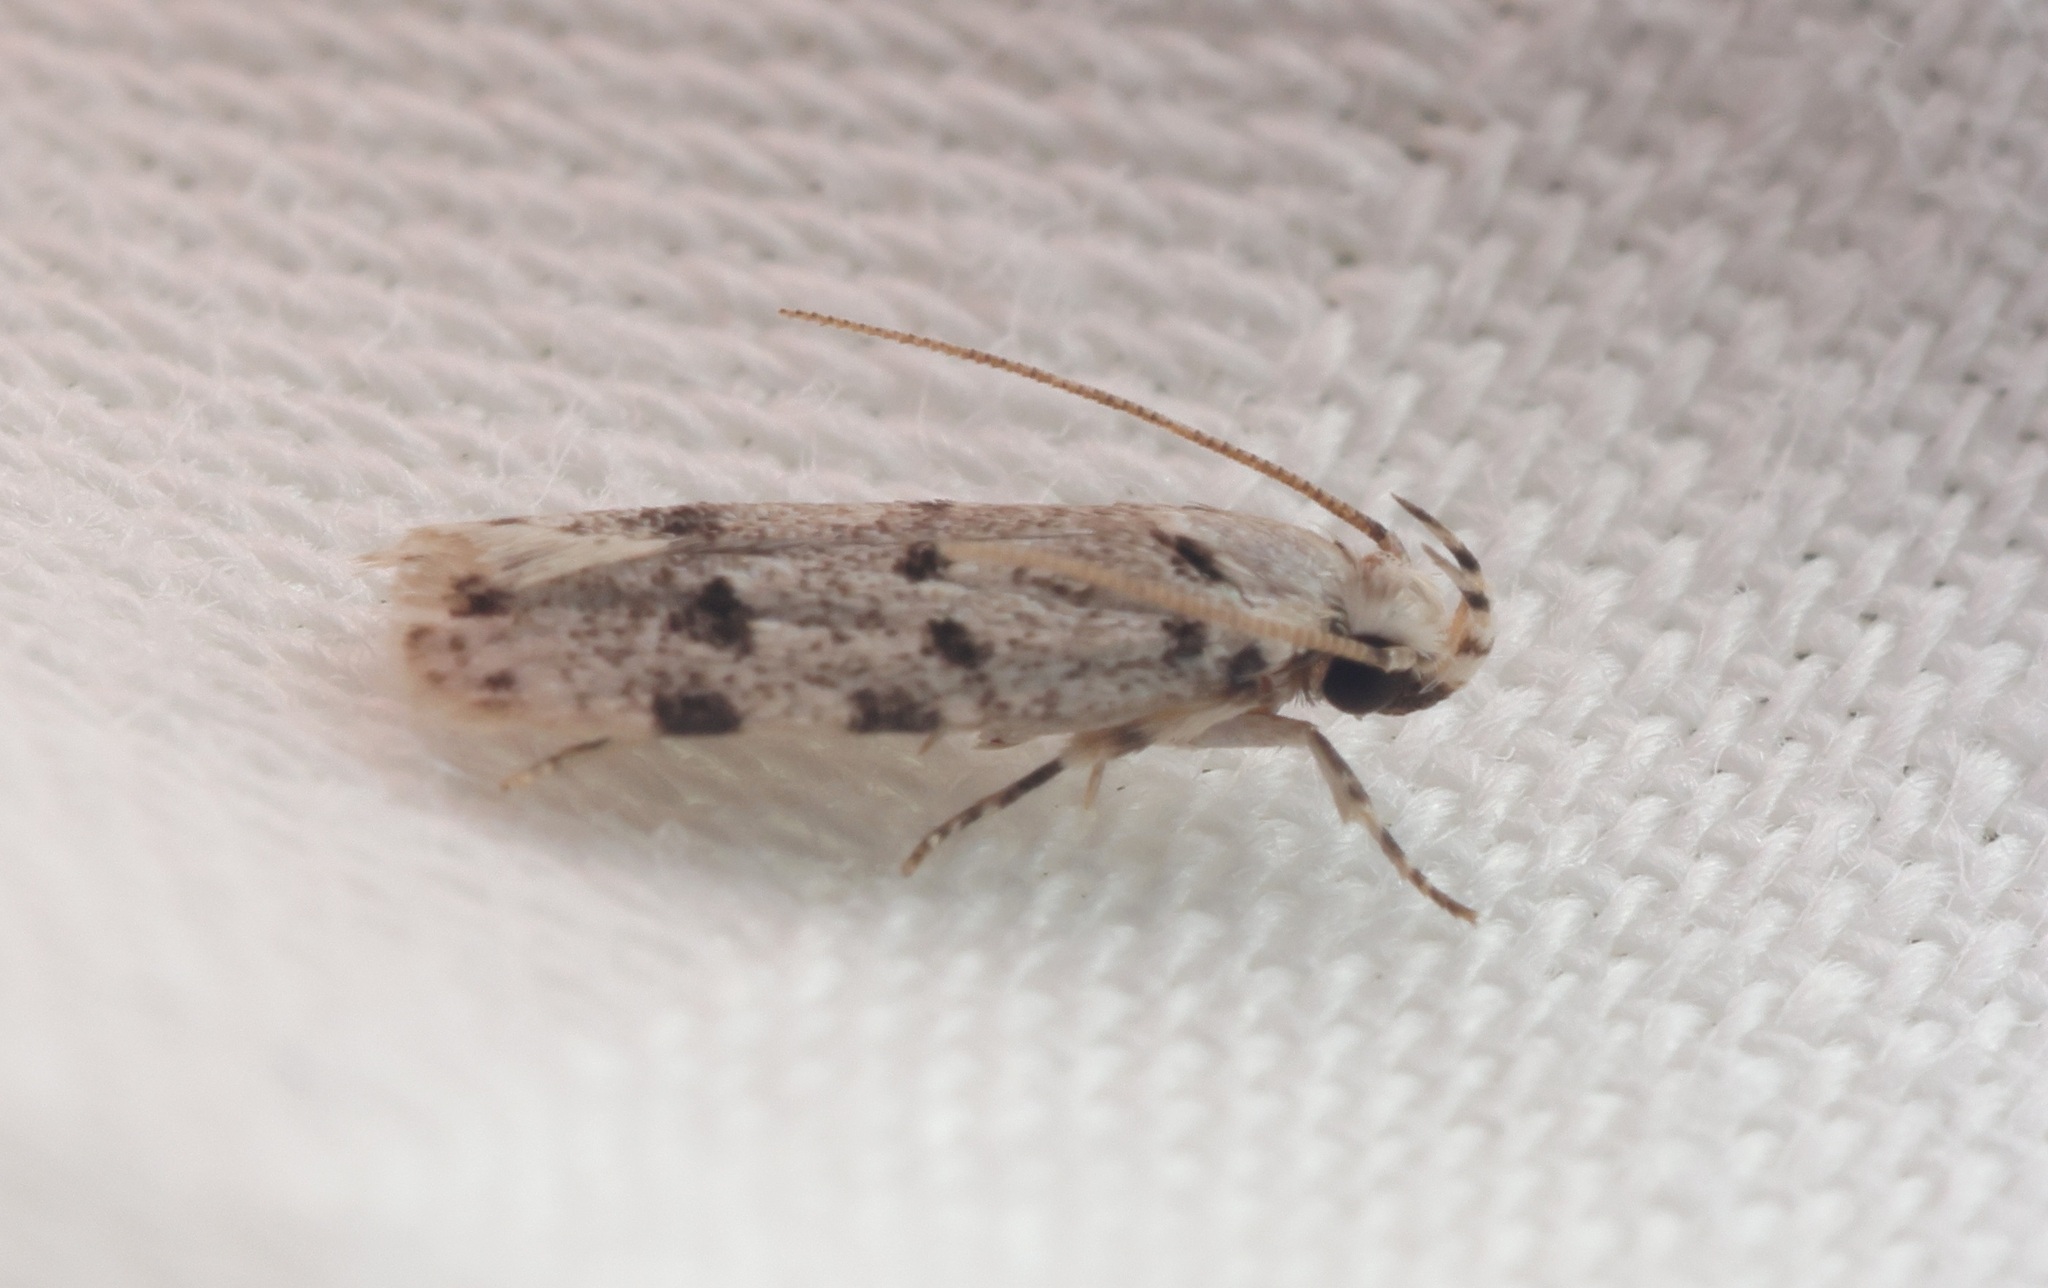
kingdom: Animalia
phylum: Arthropoda
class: Insecta
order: Lepidoptera
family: Autostichidae
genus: Autosticha
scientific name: Autosticha calceata
